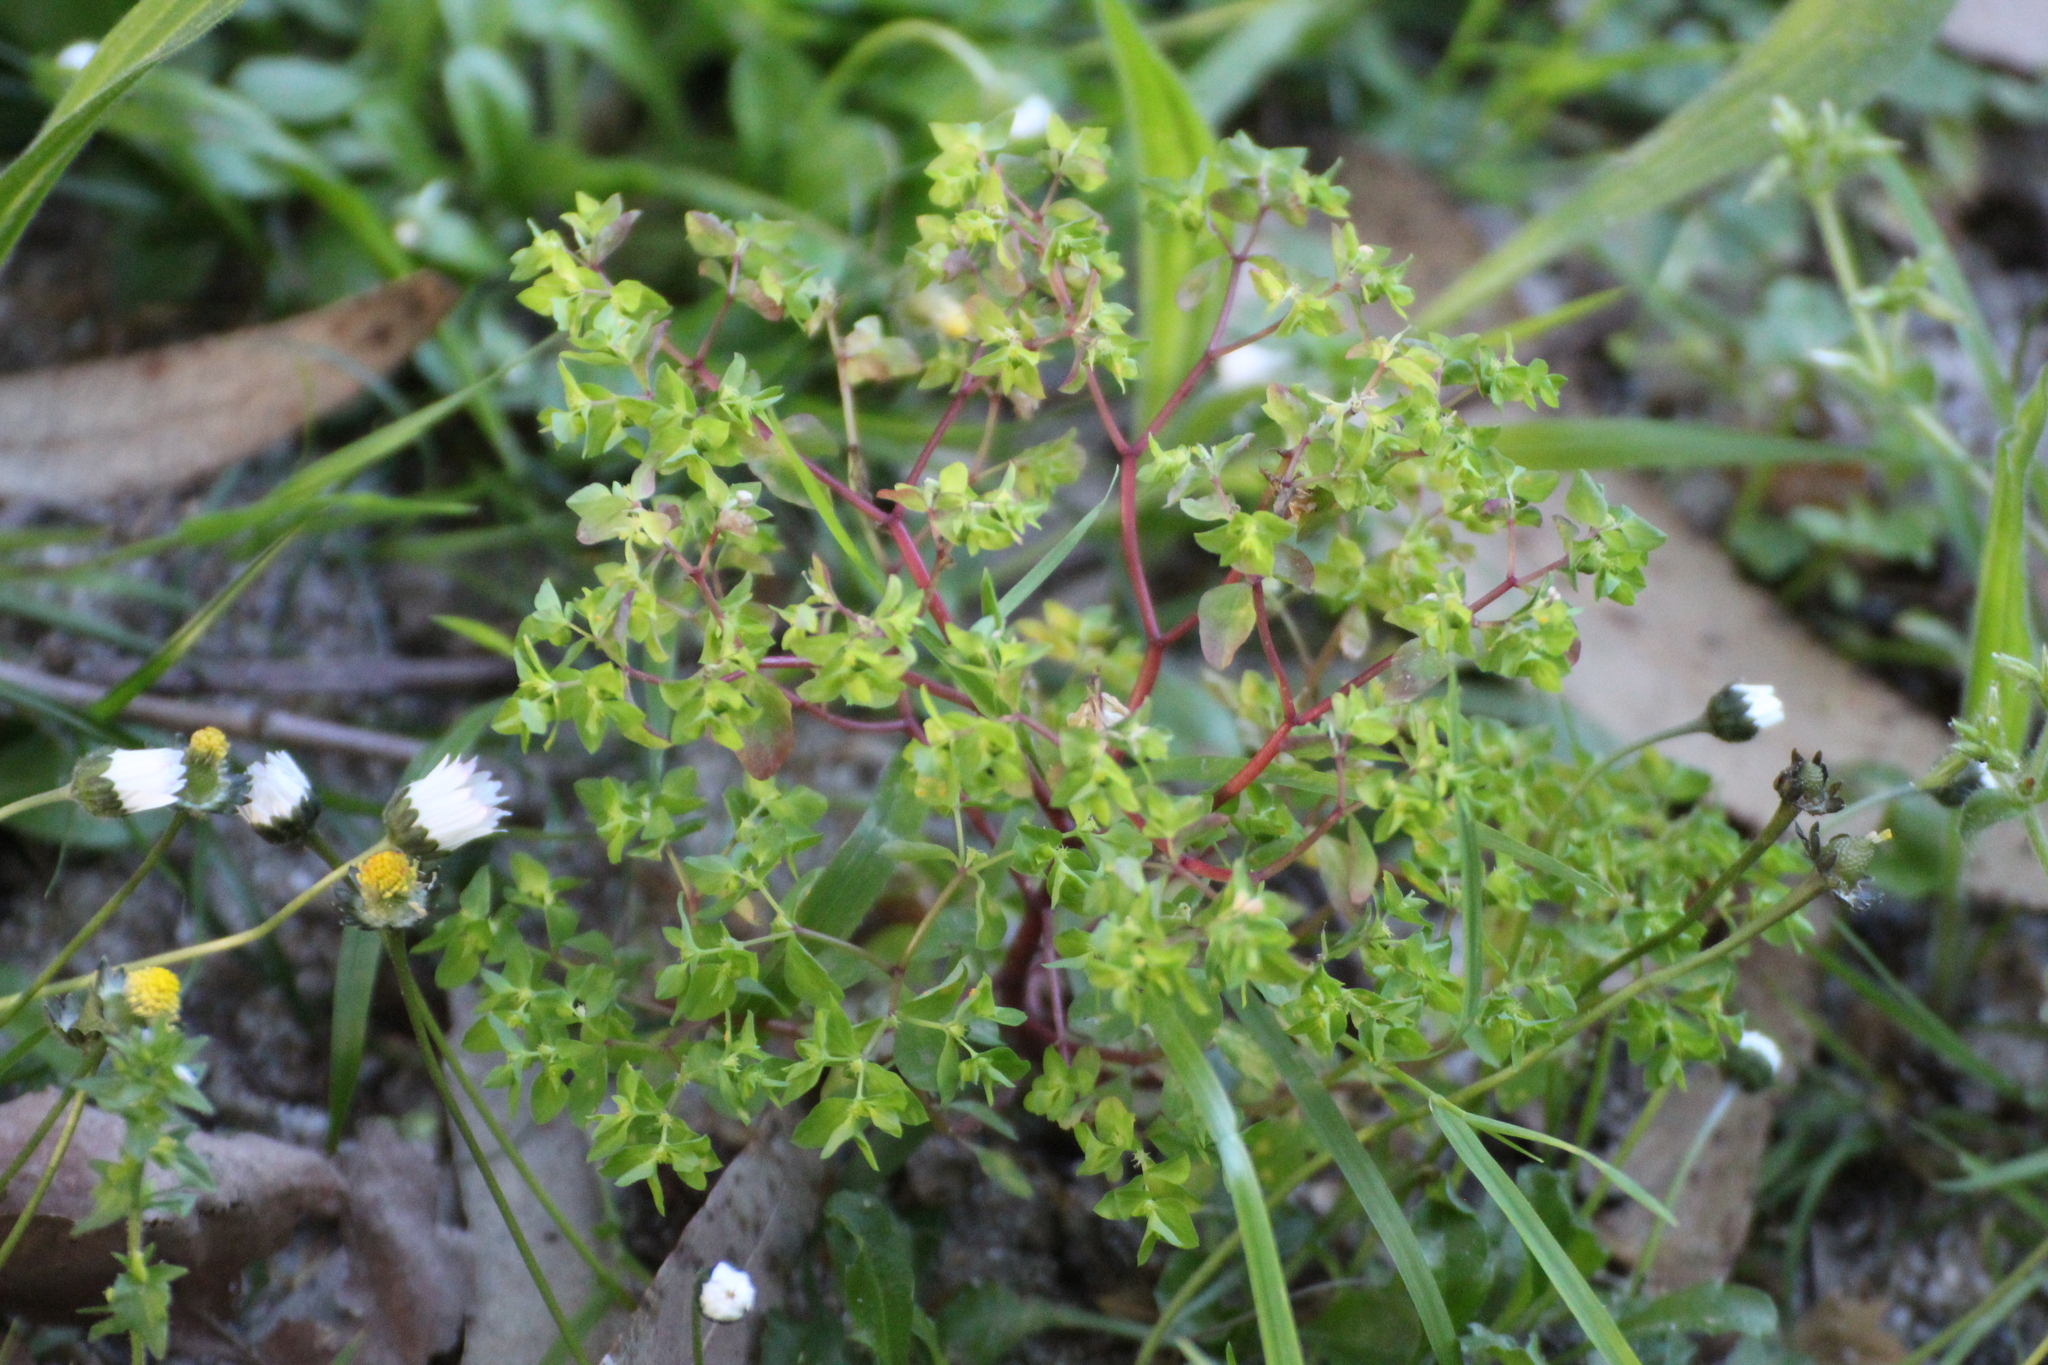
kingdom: Plantae
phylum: Tracheophyta
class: Magnoliopsida
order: Malpighiales
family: Euphorbiaceae
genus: Euphorbia
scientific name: Euphorbia peplus
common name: Petty spurge
